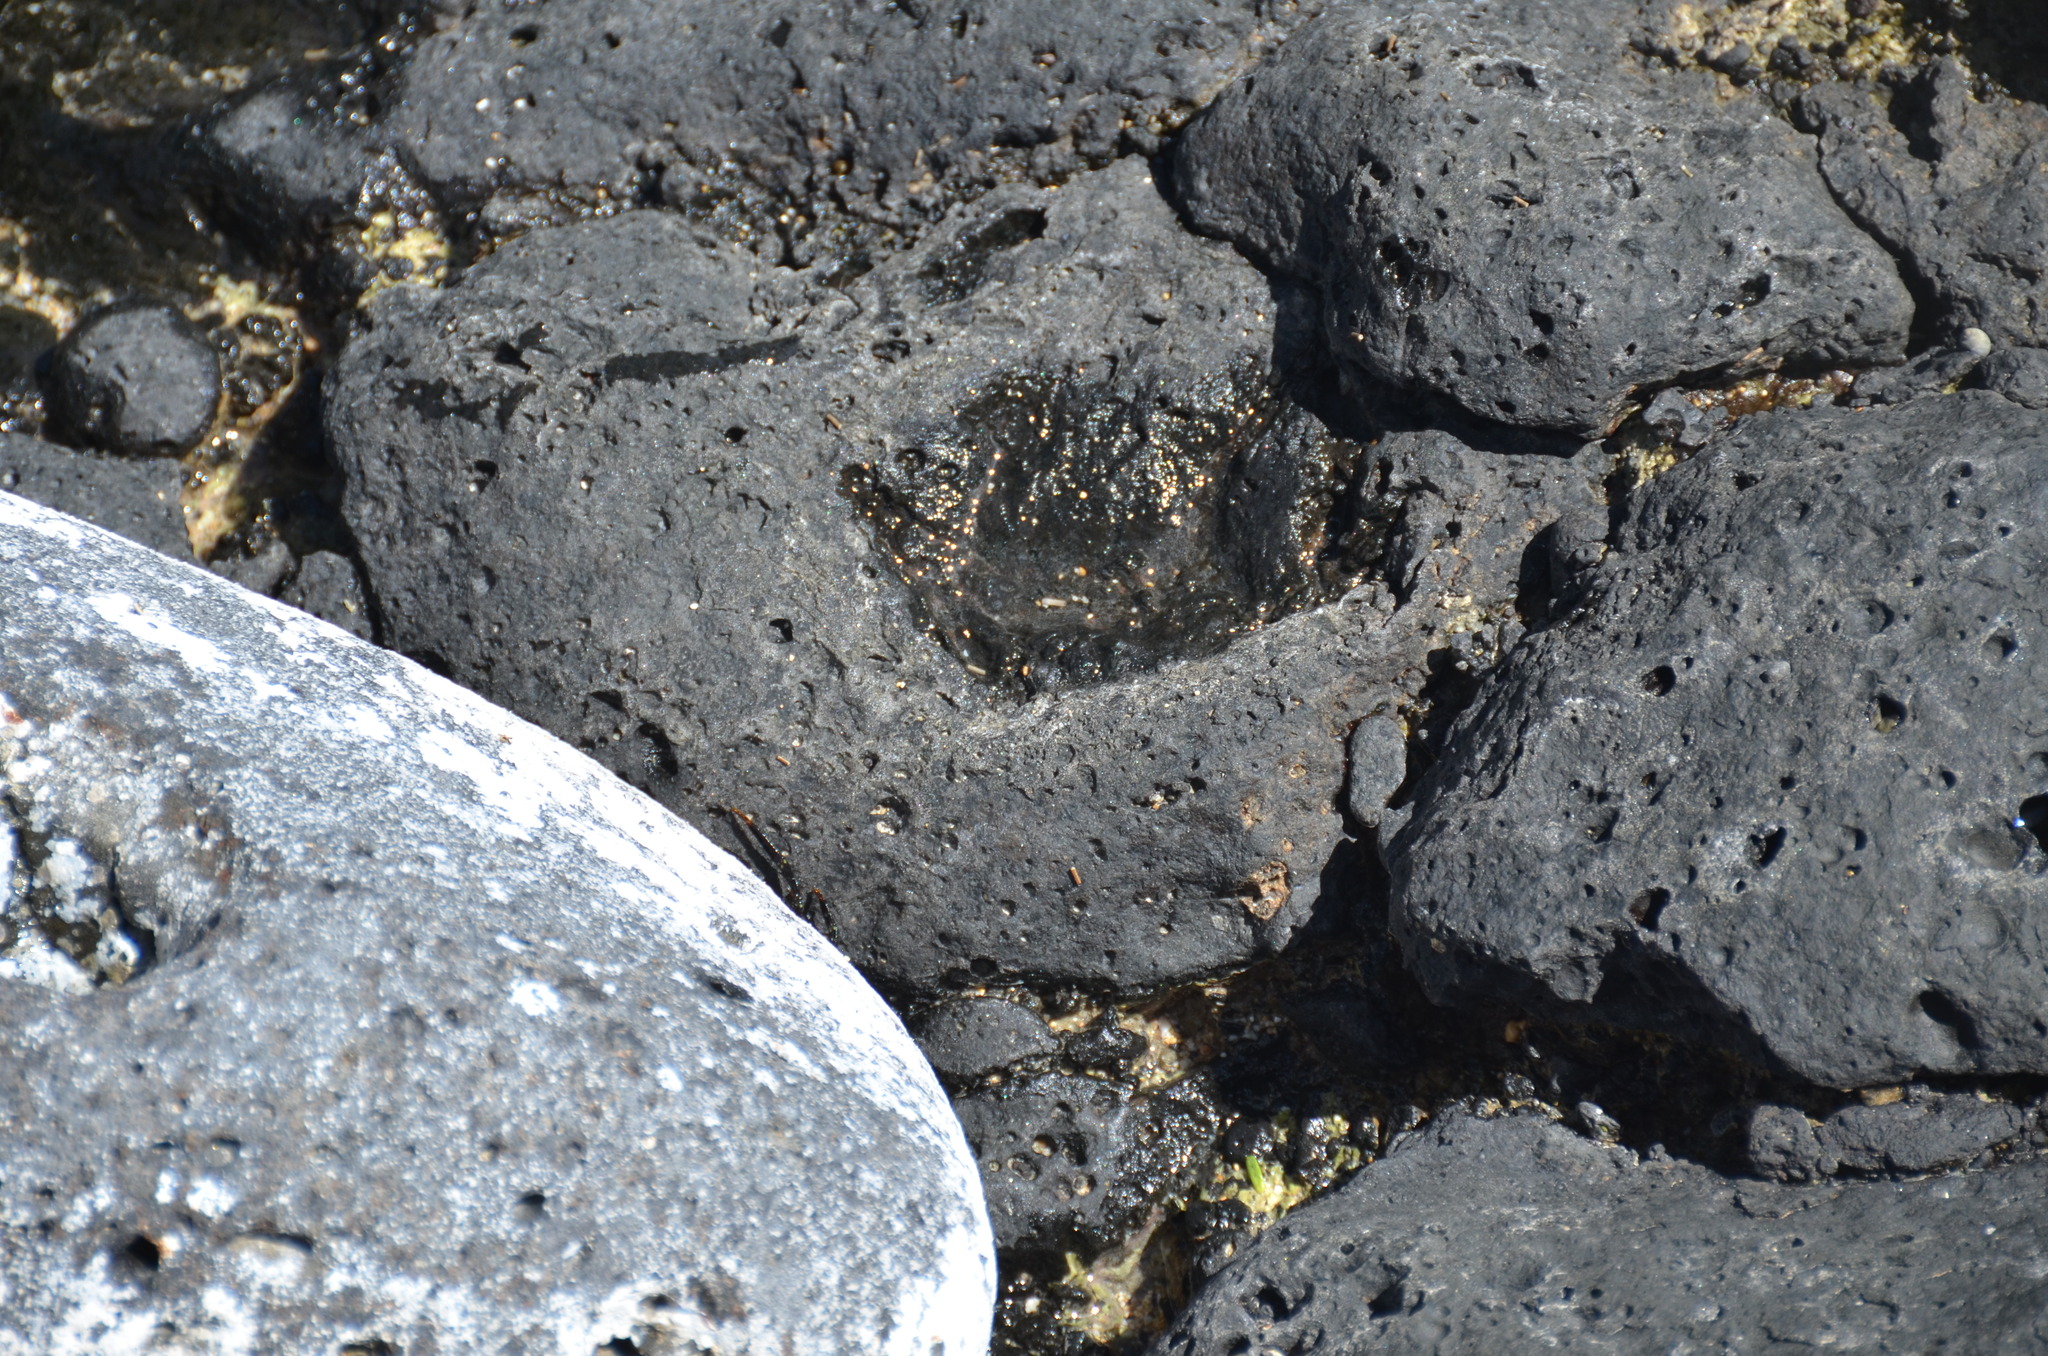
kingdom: Animalia
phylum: Arthropoda
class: Malacostraca
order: Decapoda
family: Grapsidae
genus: Grapsus
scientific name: Grapsus tenuicrustatus
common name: Natal lightfoot crab
